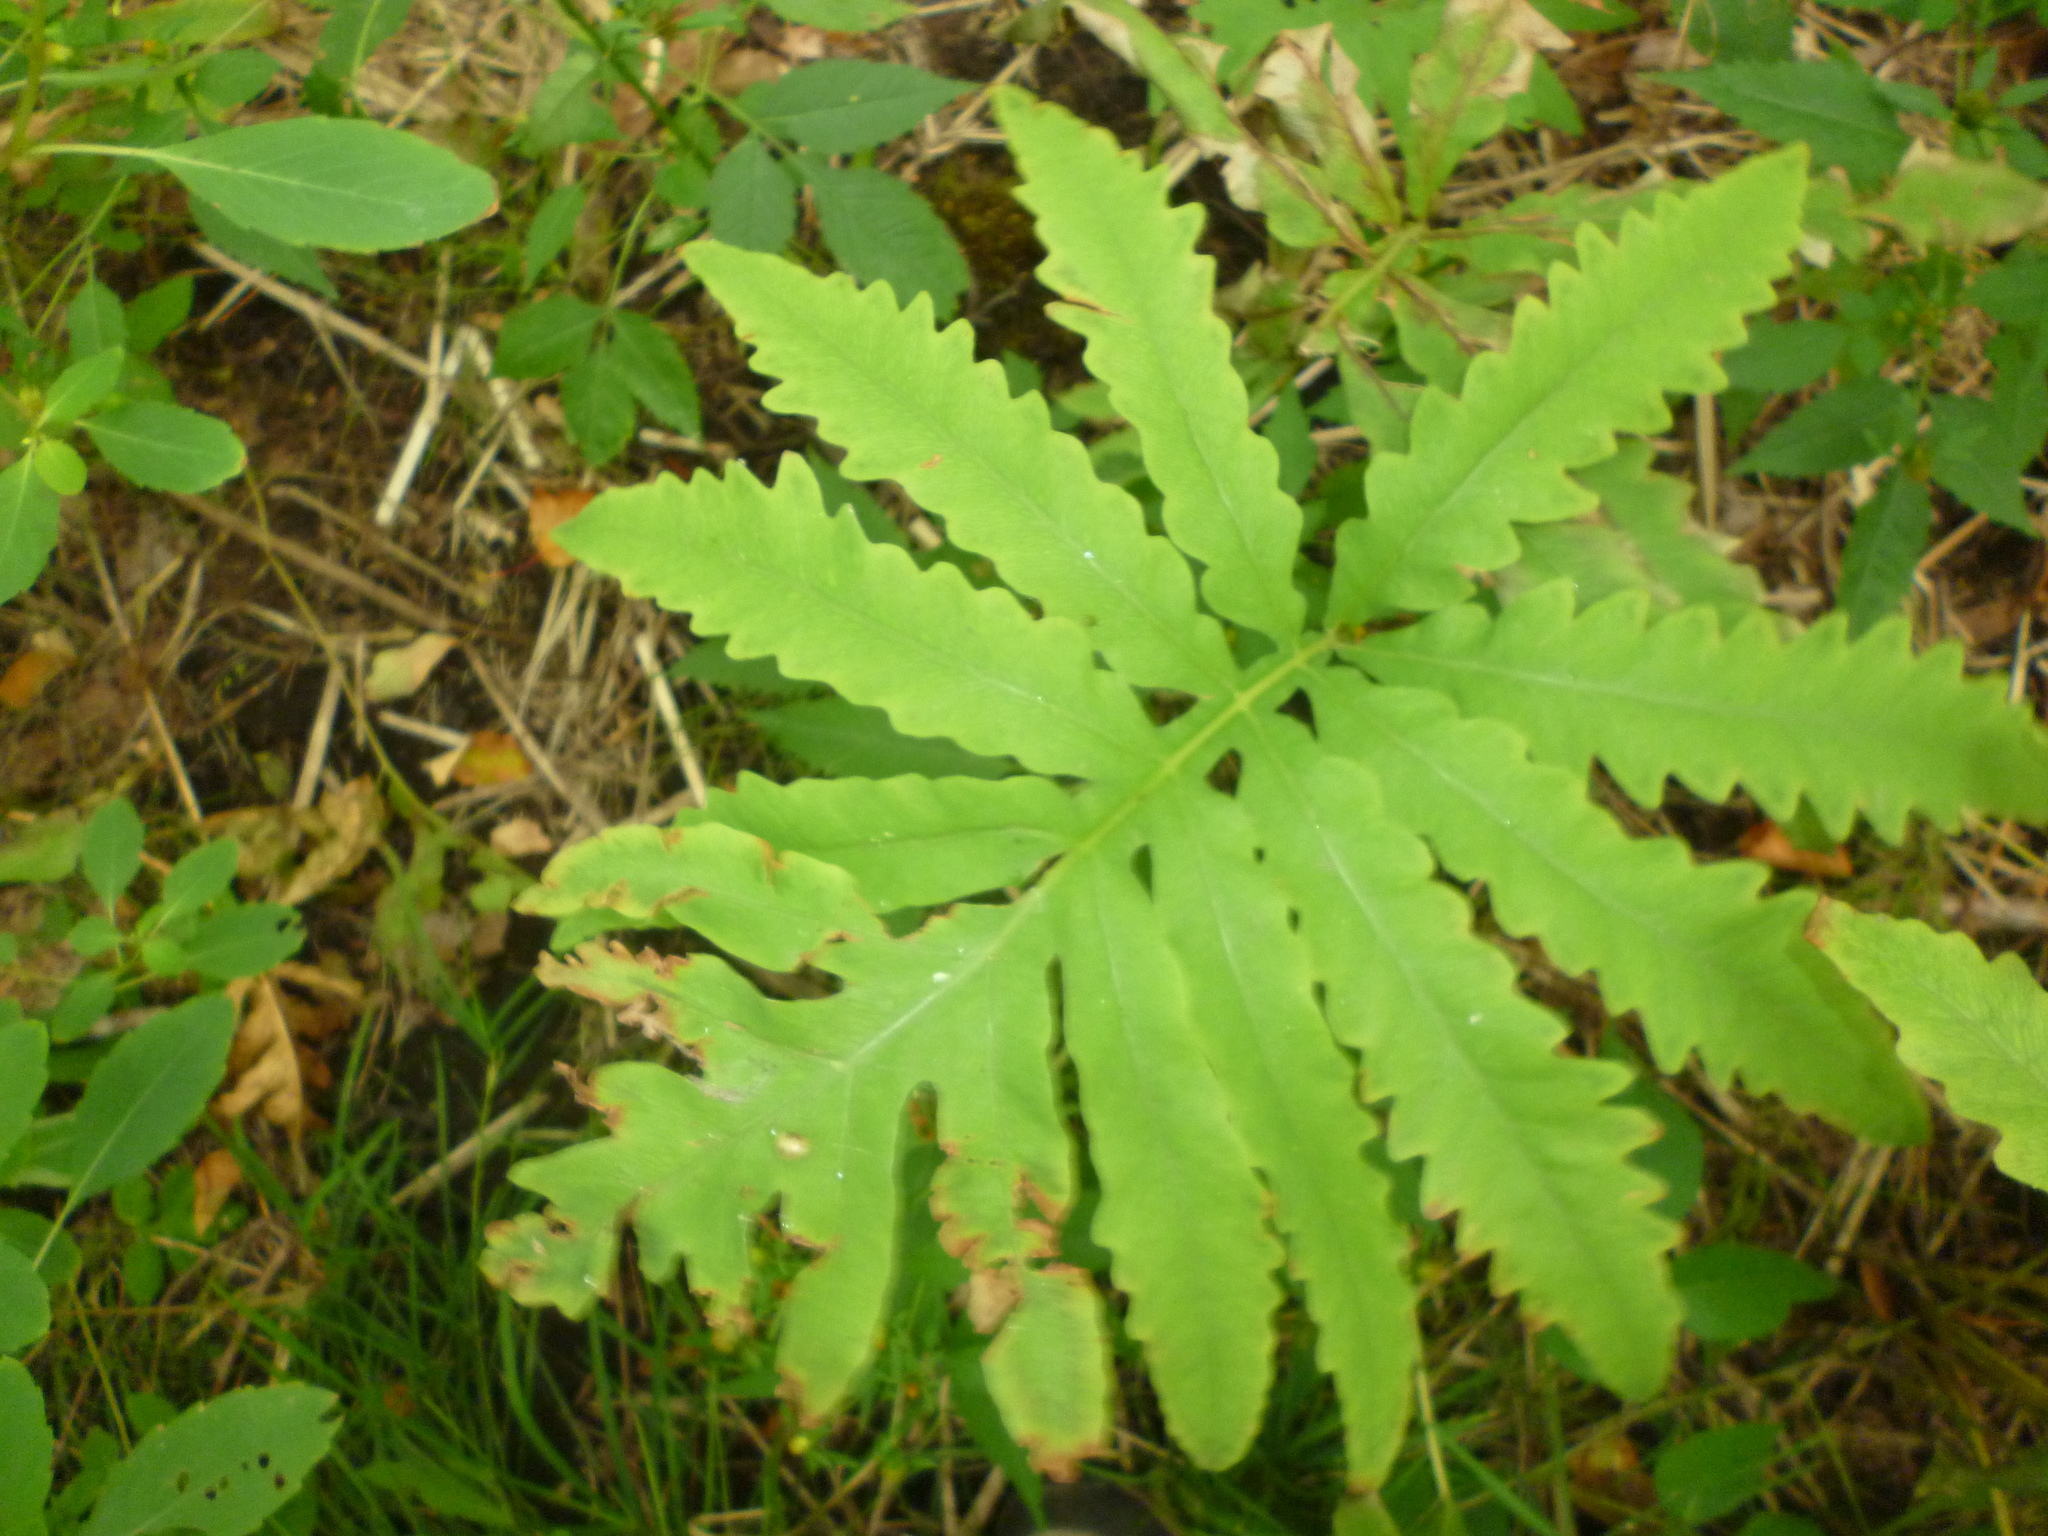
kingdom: Plantae
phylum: Tracheophyta
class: Polypodiopsida
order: Polypodiales
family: Onocleaceae
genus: Onoclea
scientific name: Onoclea sensibilis
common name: Sensitive fern
